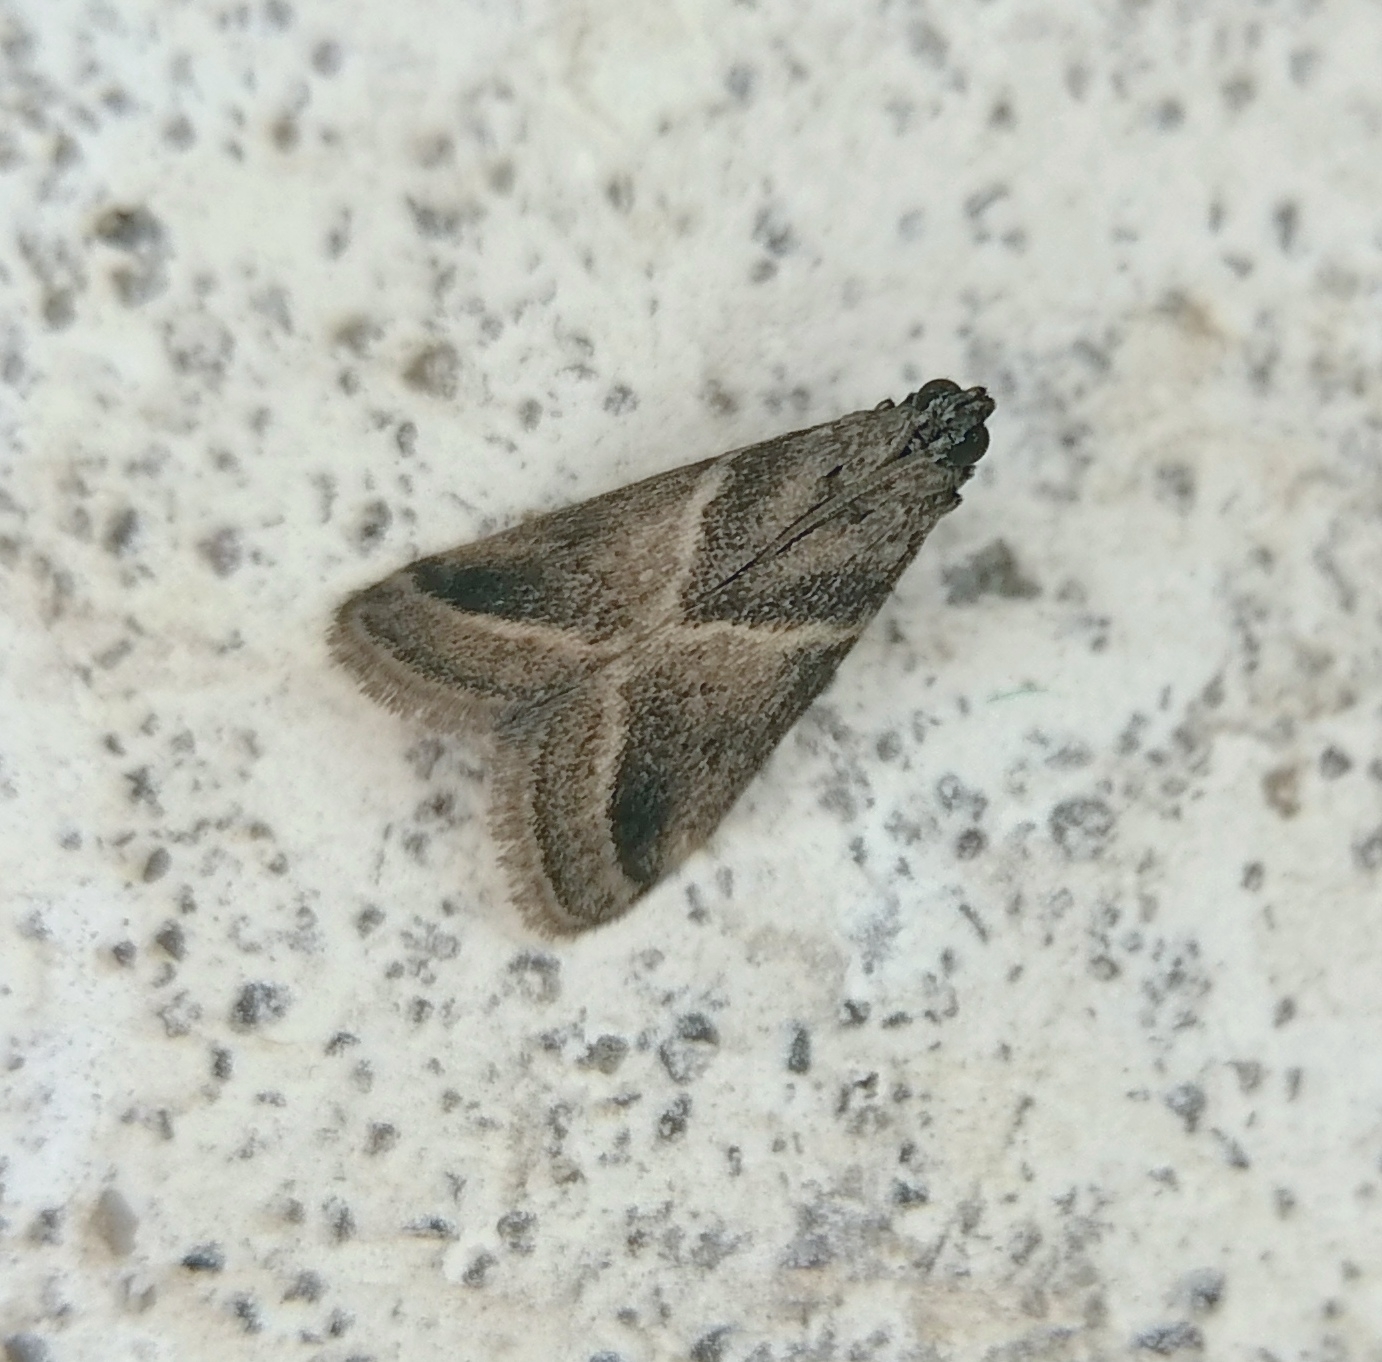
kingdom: Animalia
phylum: Arthropoda
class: Insecta
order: Lepidoptera
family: Pyralidae
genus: Nyctegretis
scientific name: Nyctegretis triangulella
